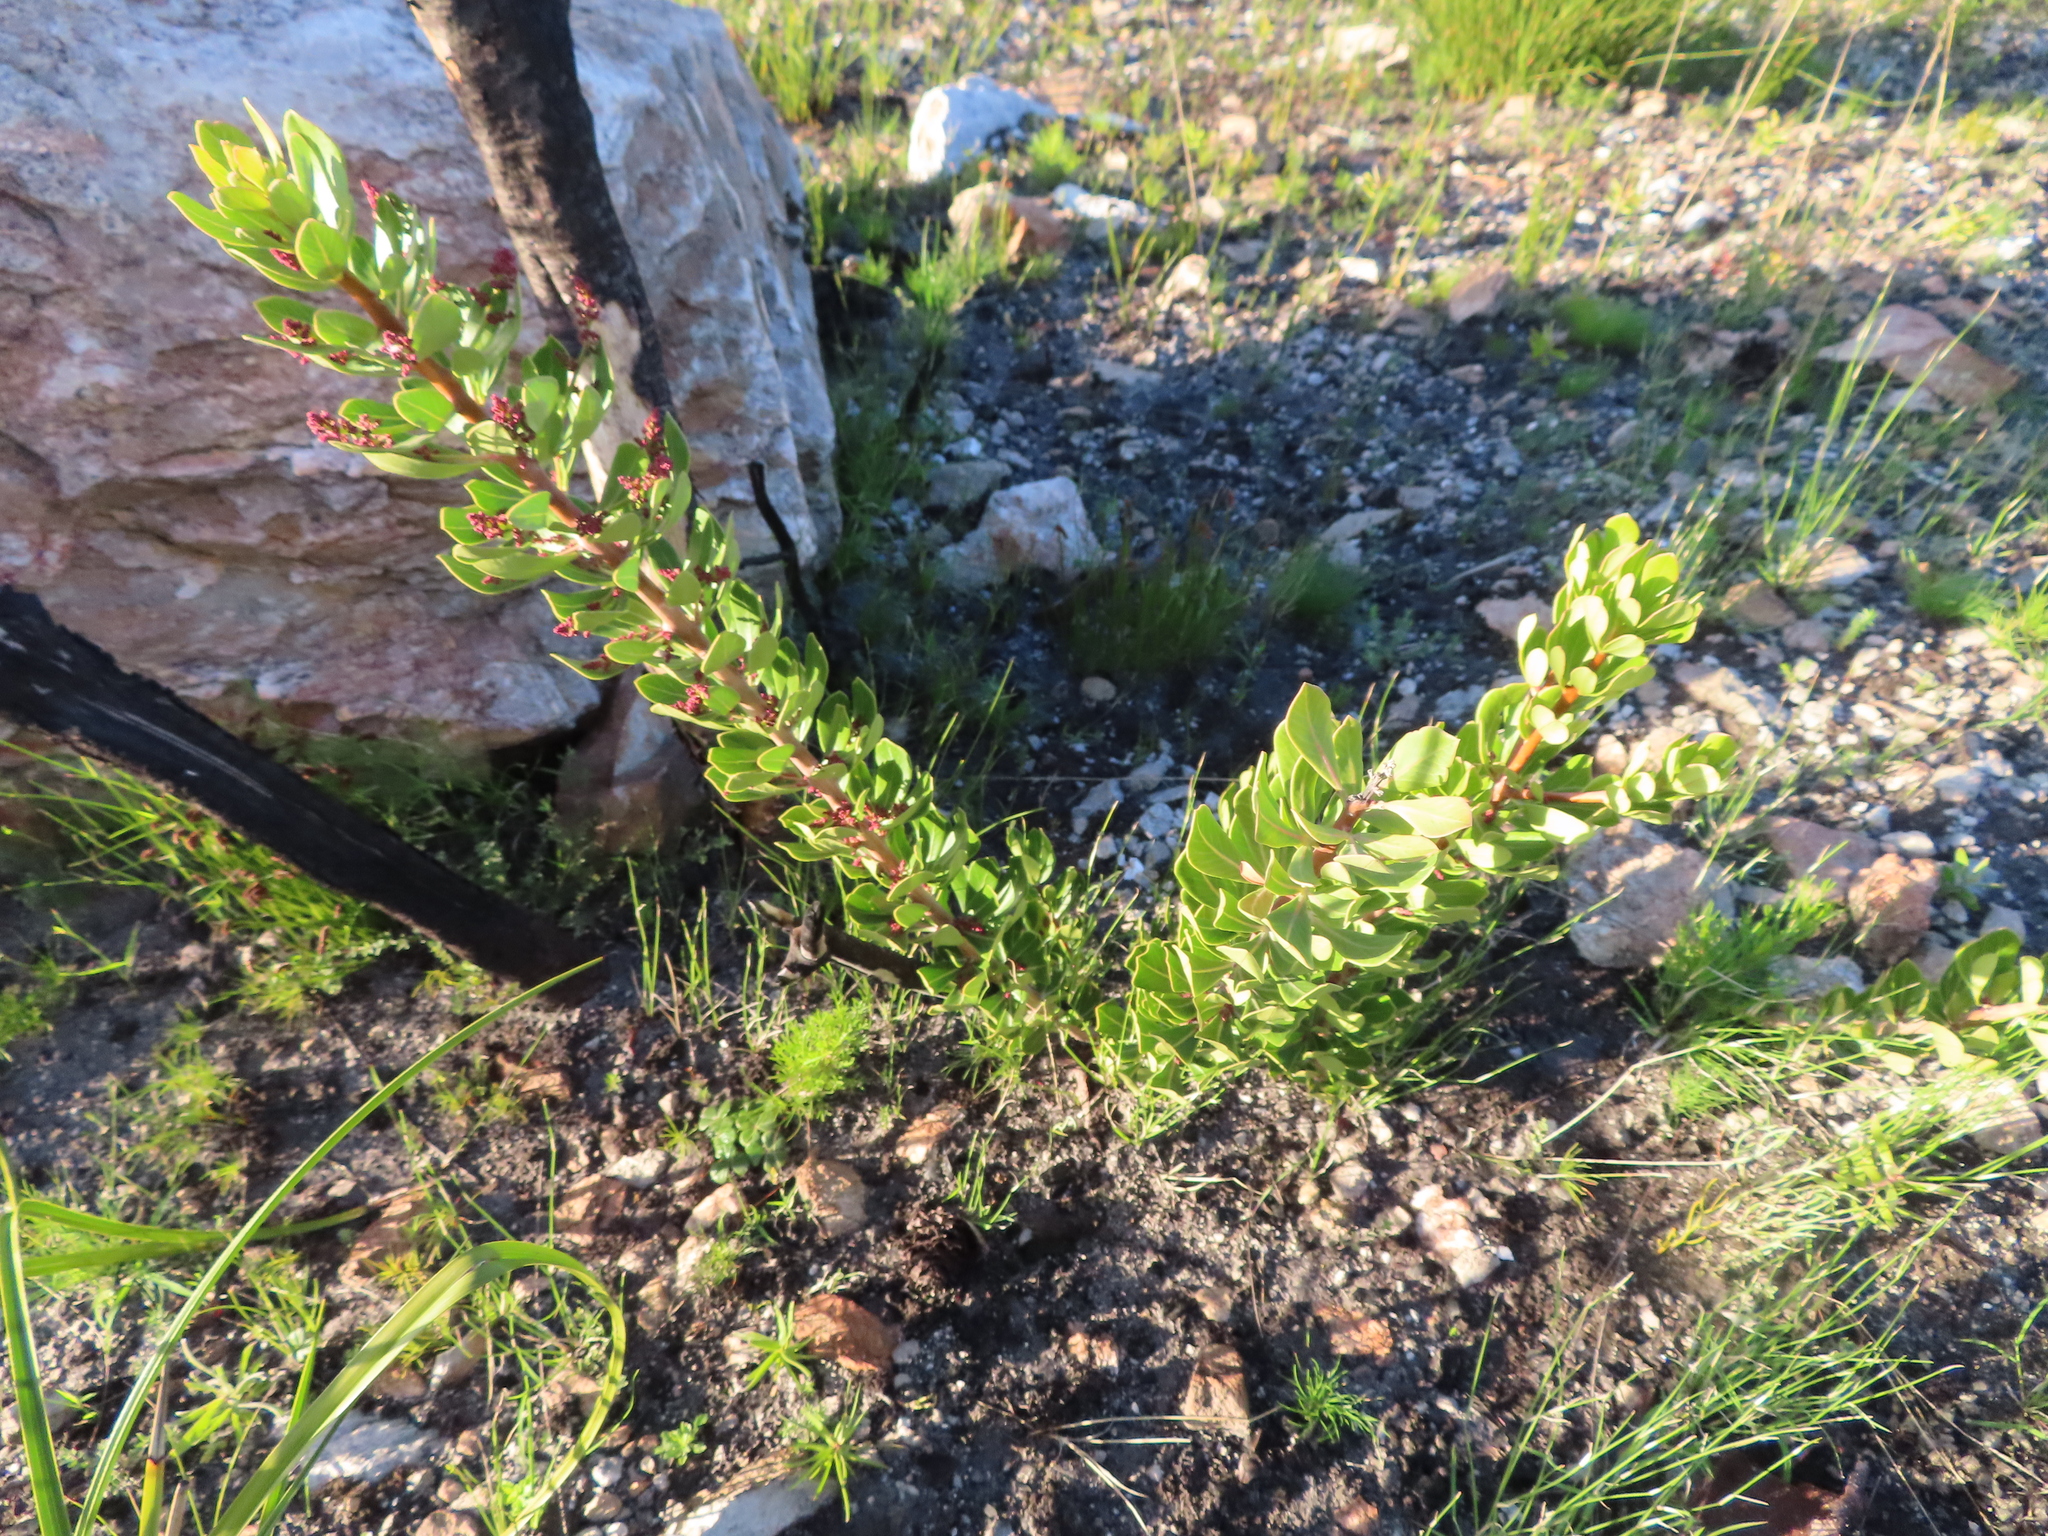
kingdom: Plantae
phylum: Tracheophyta
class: Magnoliopsida
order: Sapindales
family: Anacardiaceae
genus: Searsia
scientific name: Searsia scytophylla
